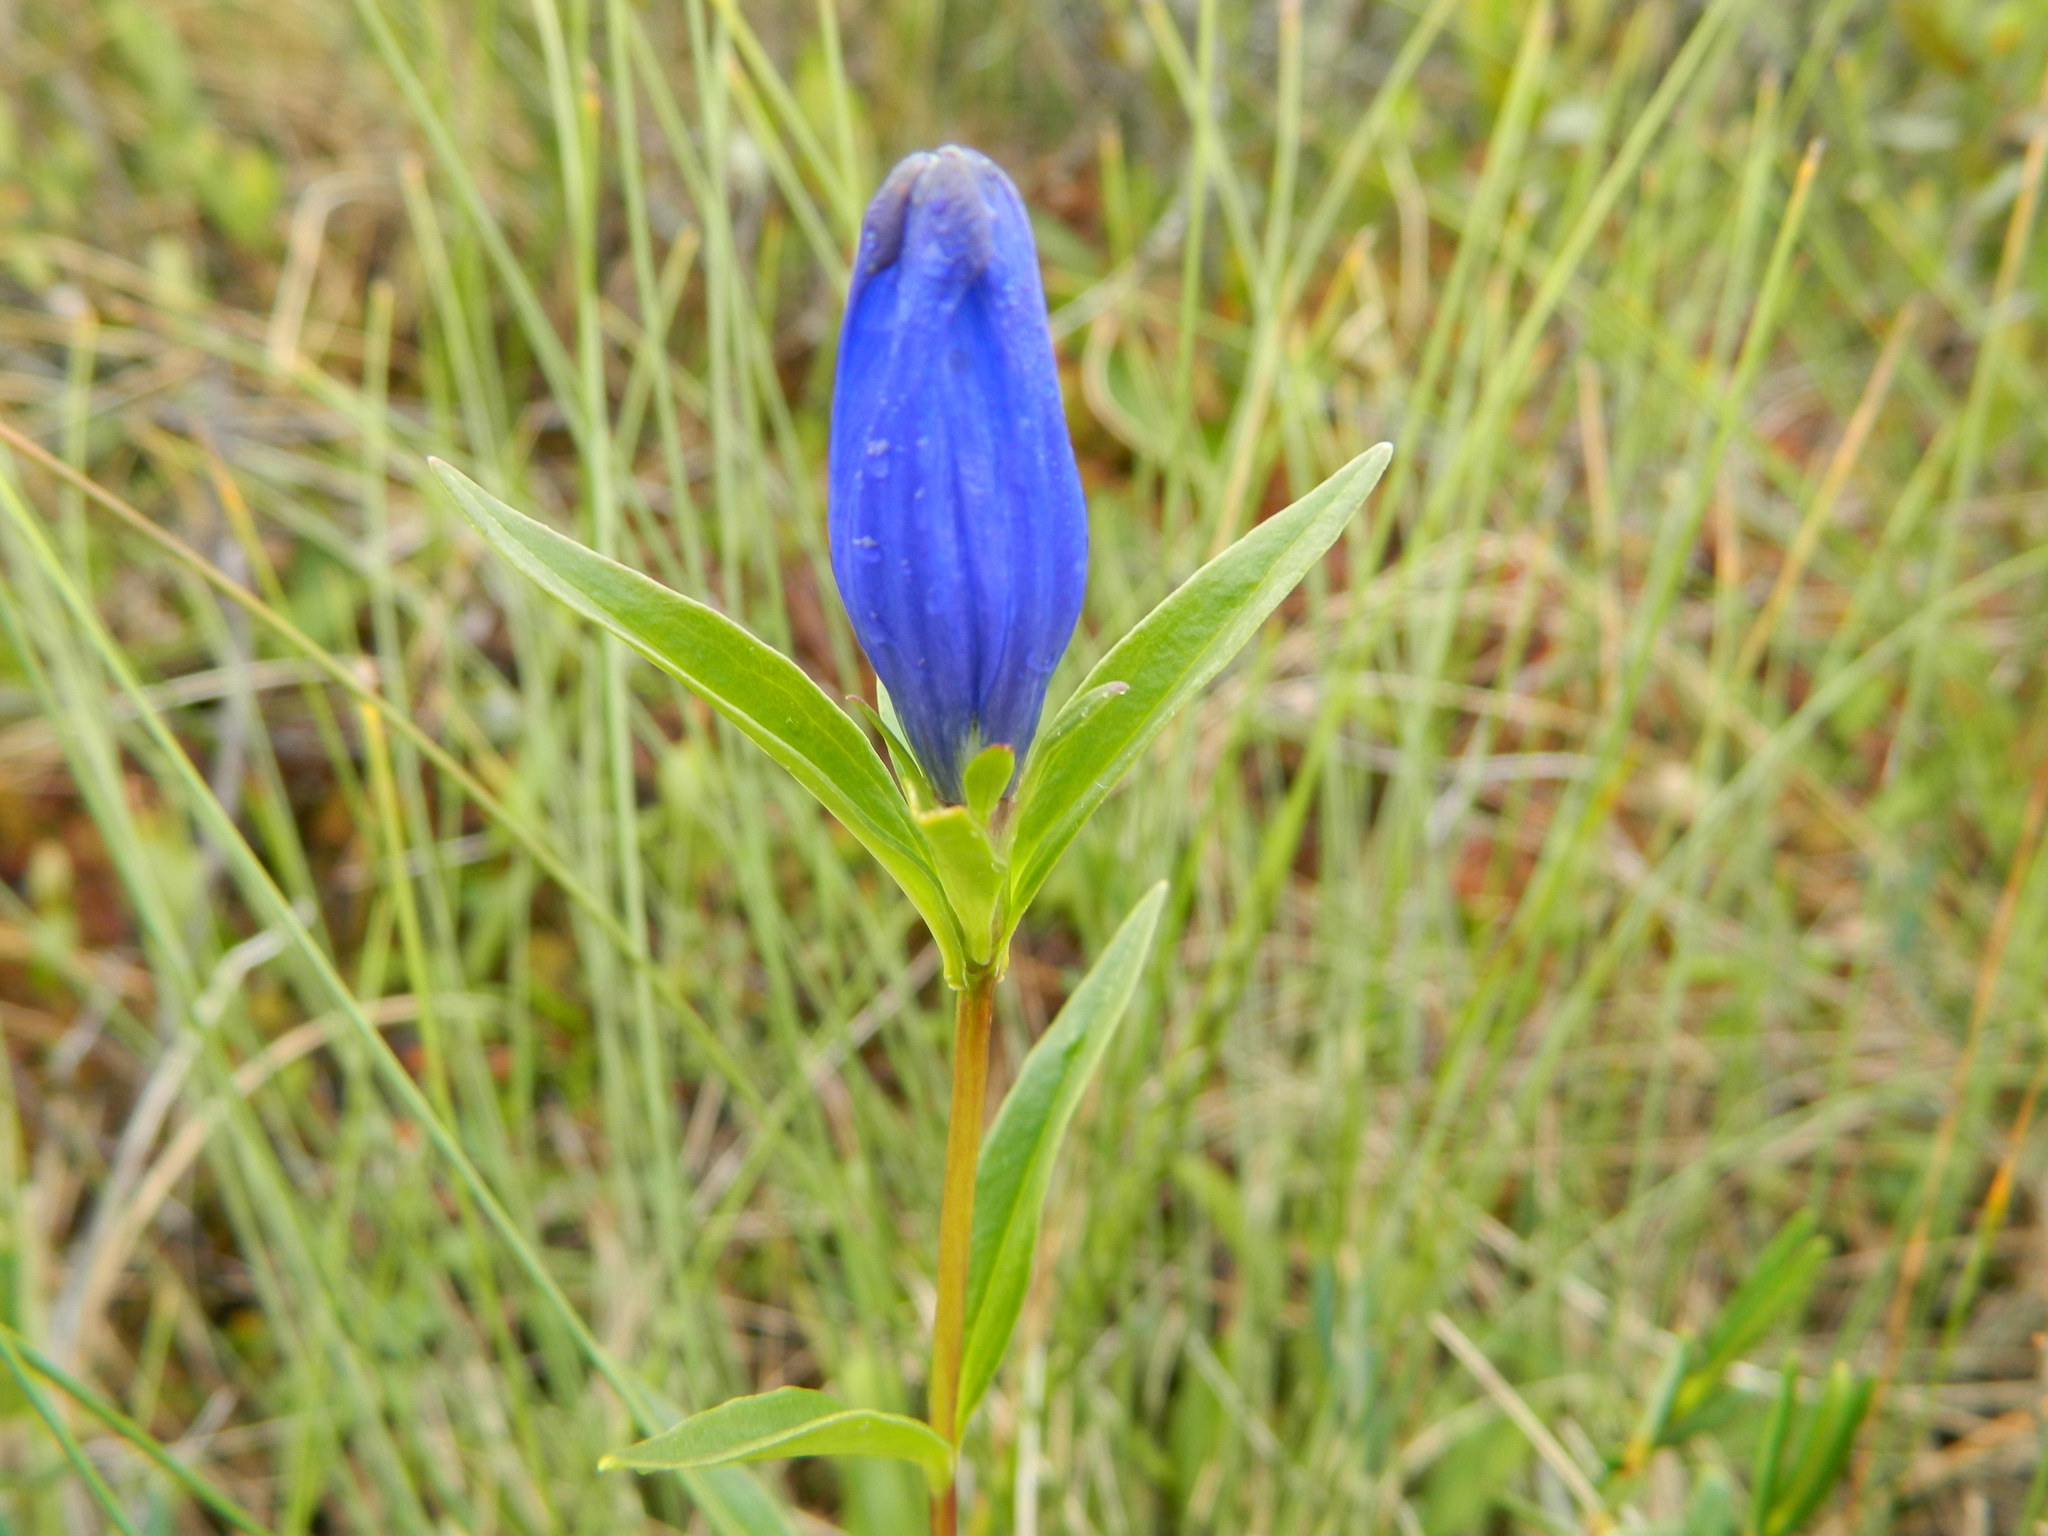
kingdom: Plantae
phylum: Tracheophyta
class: Magnoliopsida
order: Gentianales
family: Gentianaceae
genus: Gentiana
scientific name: Gentiana linearis
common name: Bastard gentian
